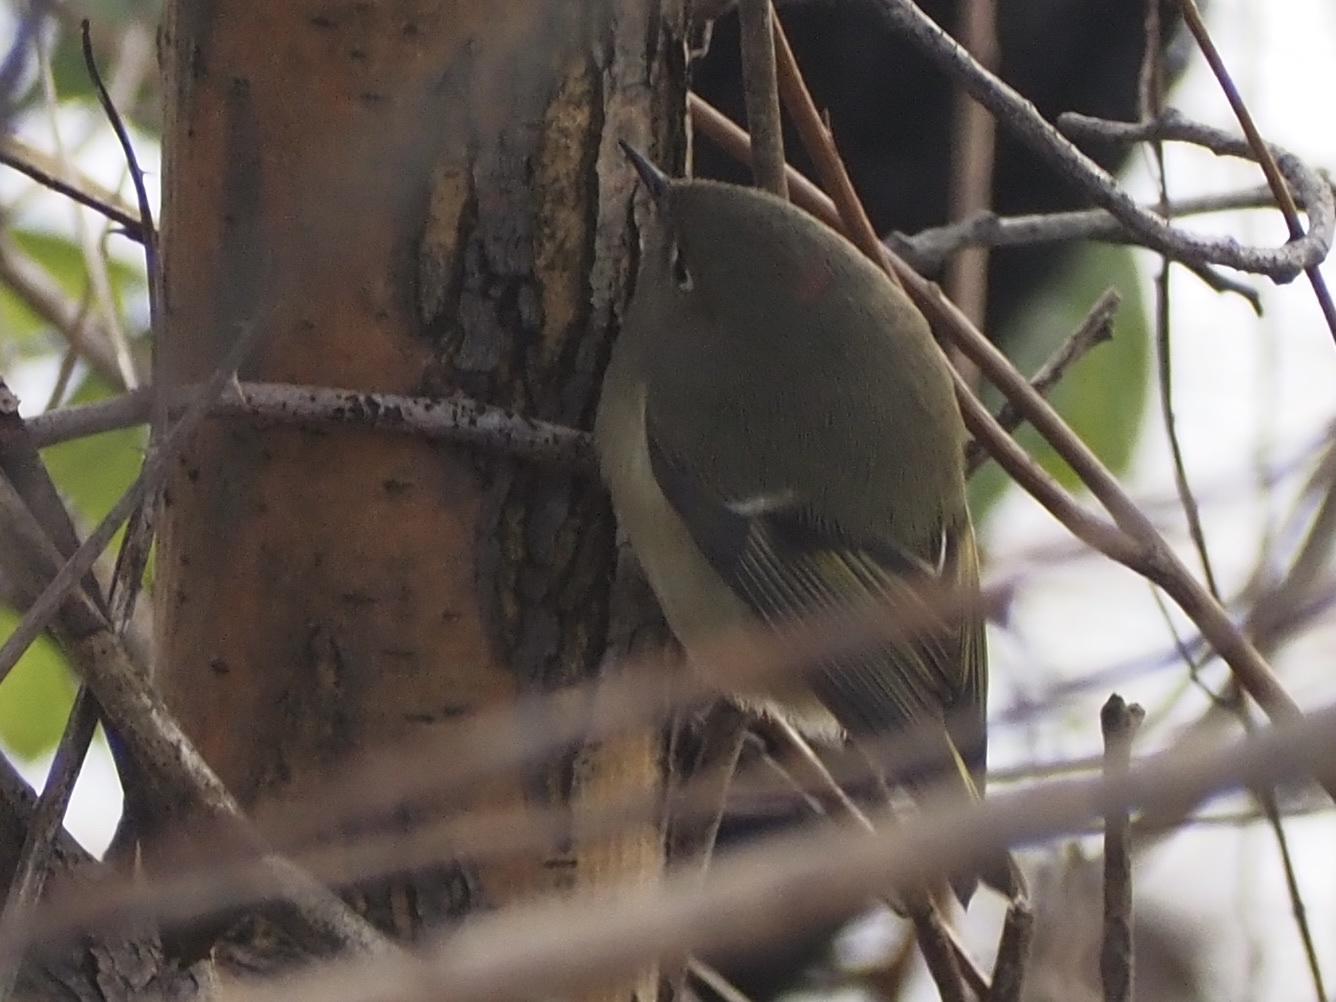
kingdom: Animalia
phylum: Chordata
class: Aves
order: Passeriformes
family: Regulidae
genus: Regulus
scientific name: Regulus calendula
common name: Ruby-crowned kinglet
